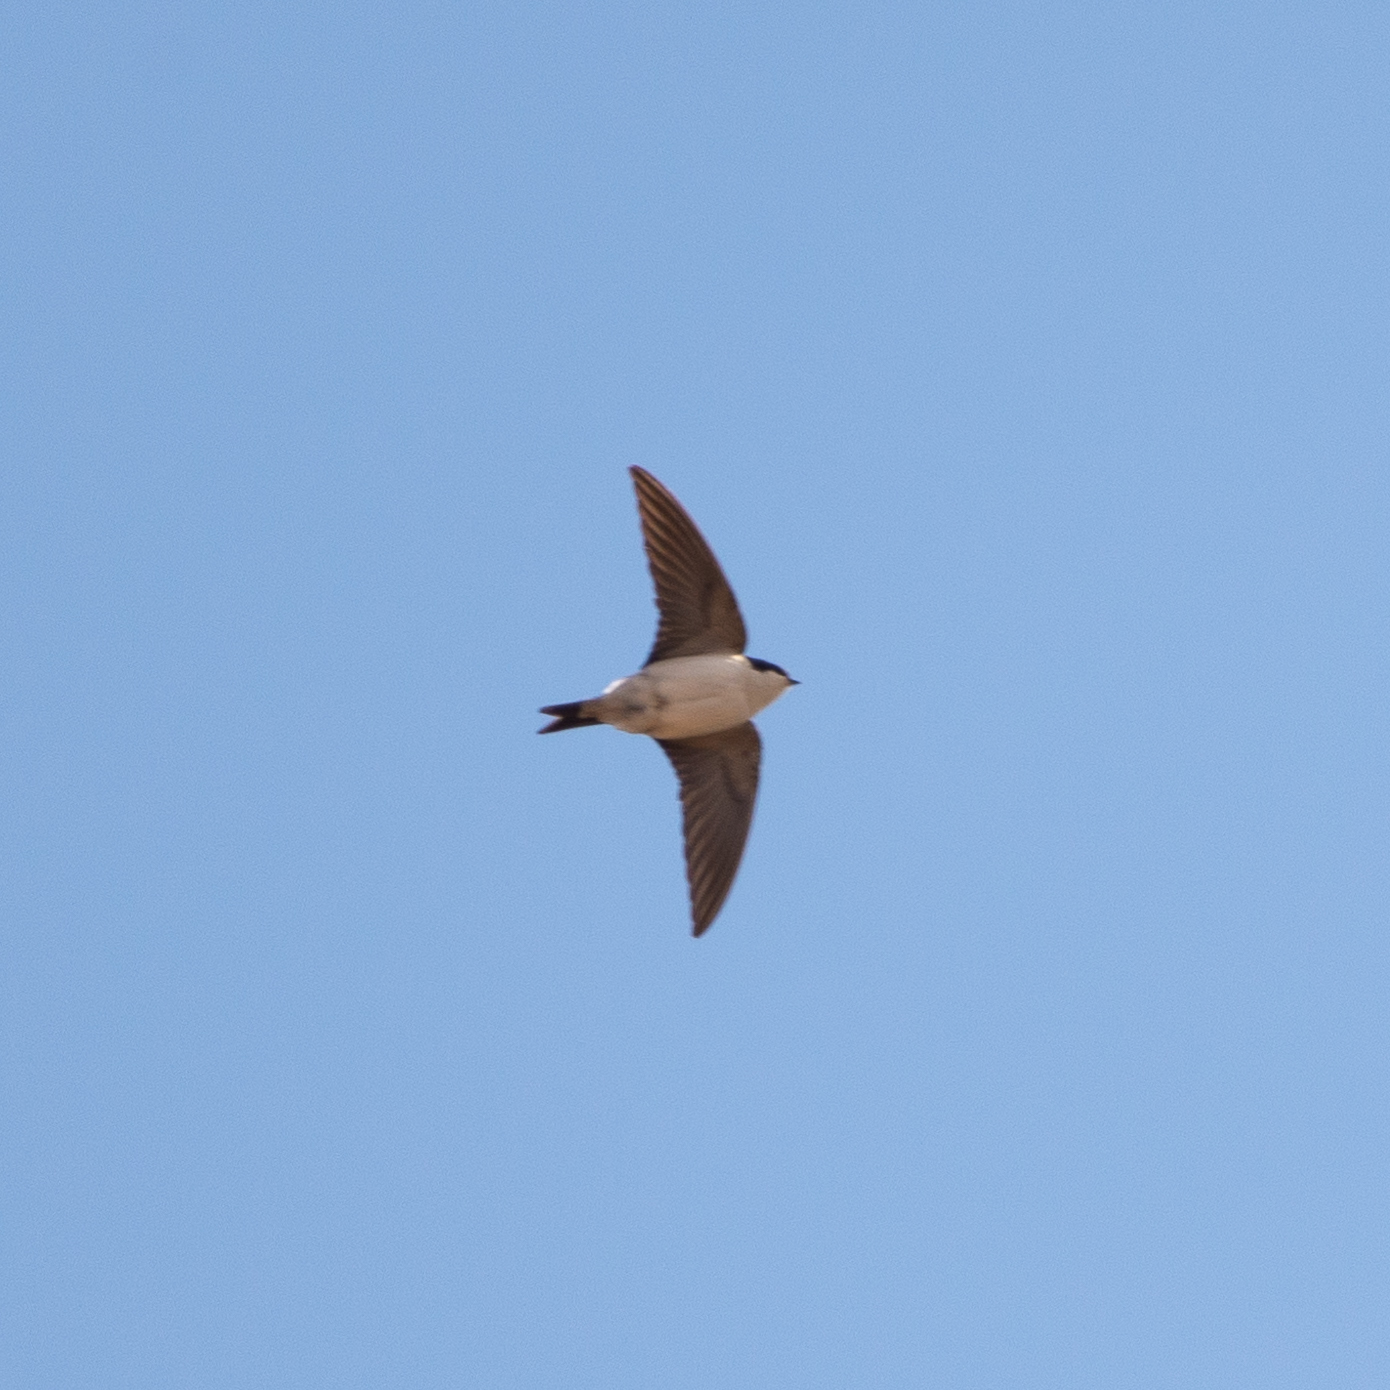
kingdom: Animalia
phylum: Chordata
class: Aves
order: Passeriformes
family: Hirundinidae
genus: Delichon
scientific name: Delichon urbicum
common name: Common house martin
